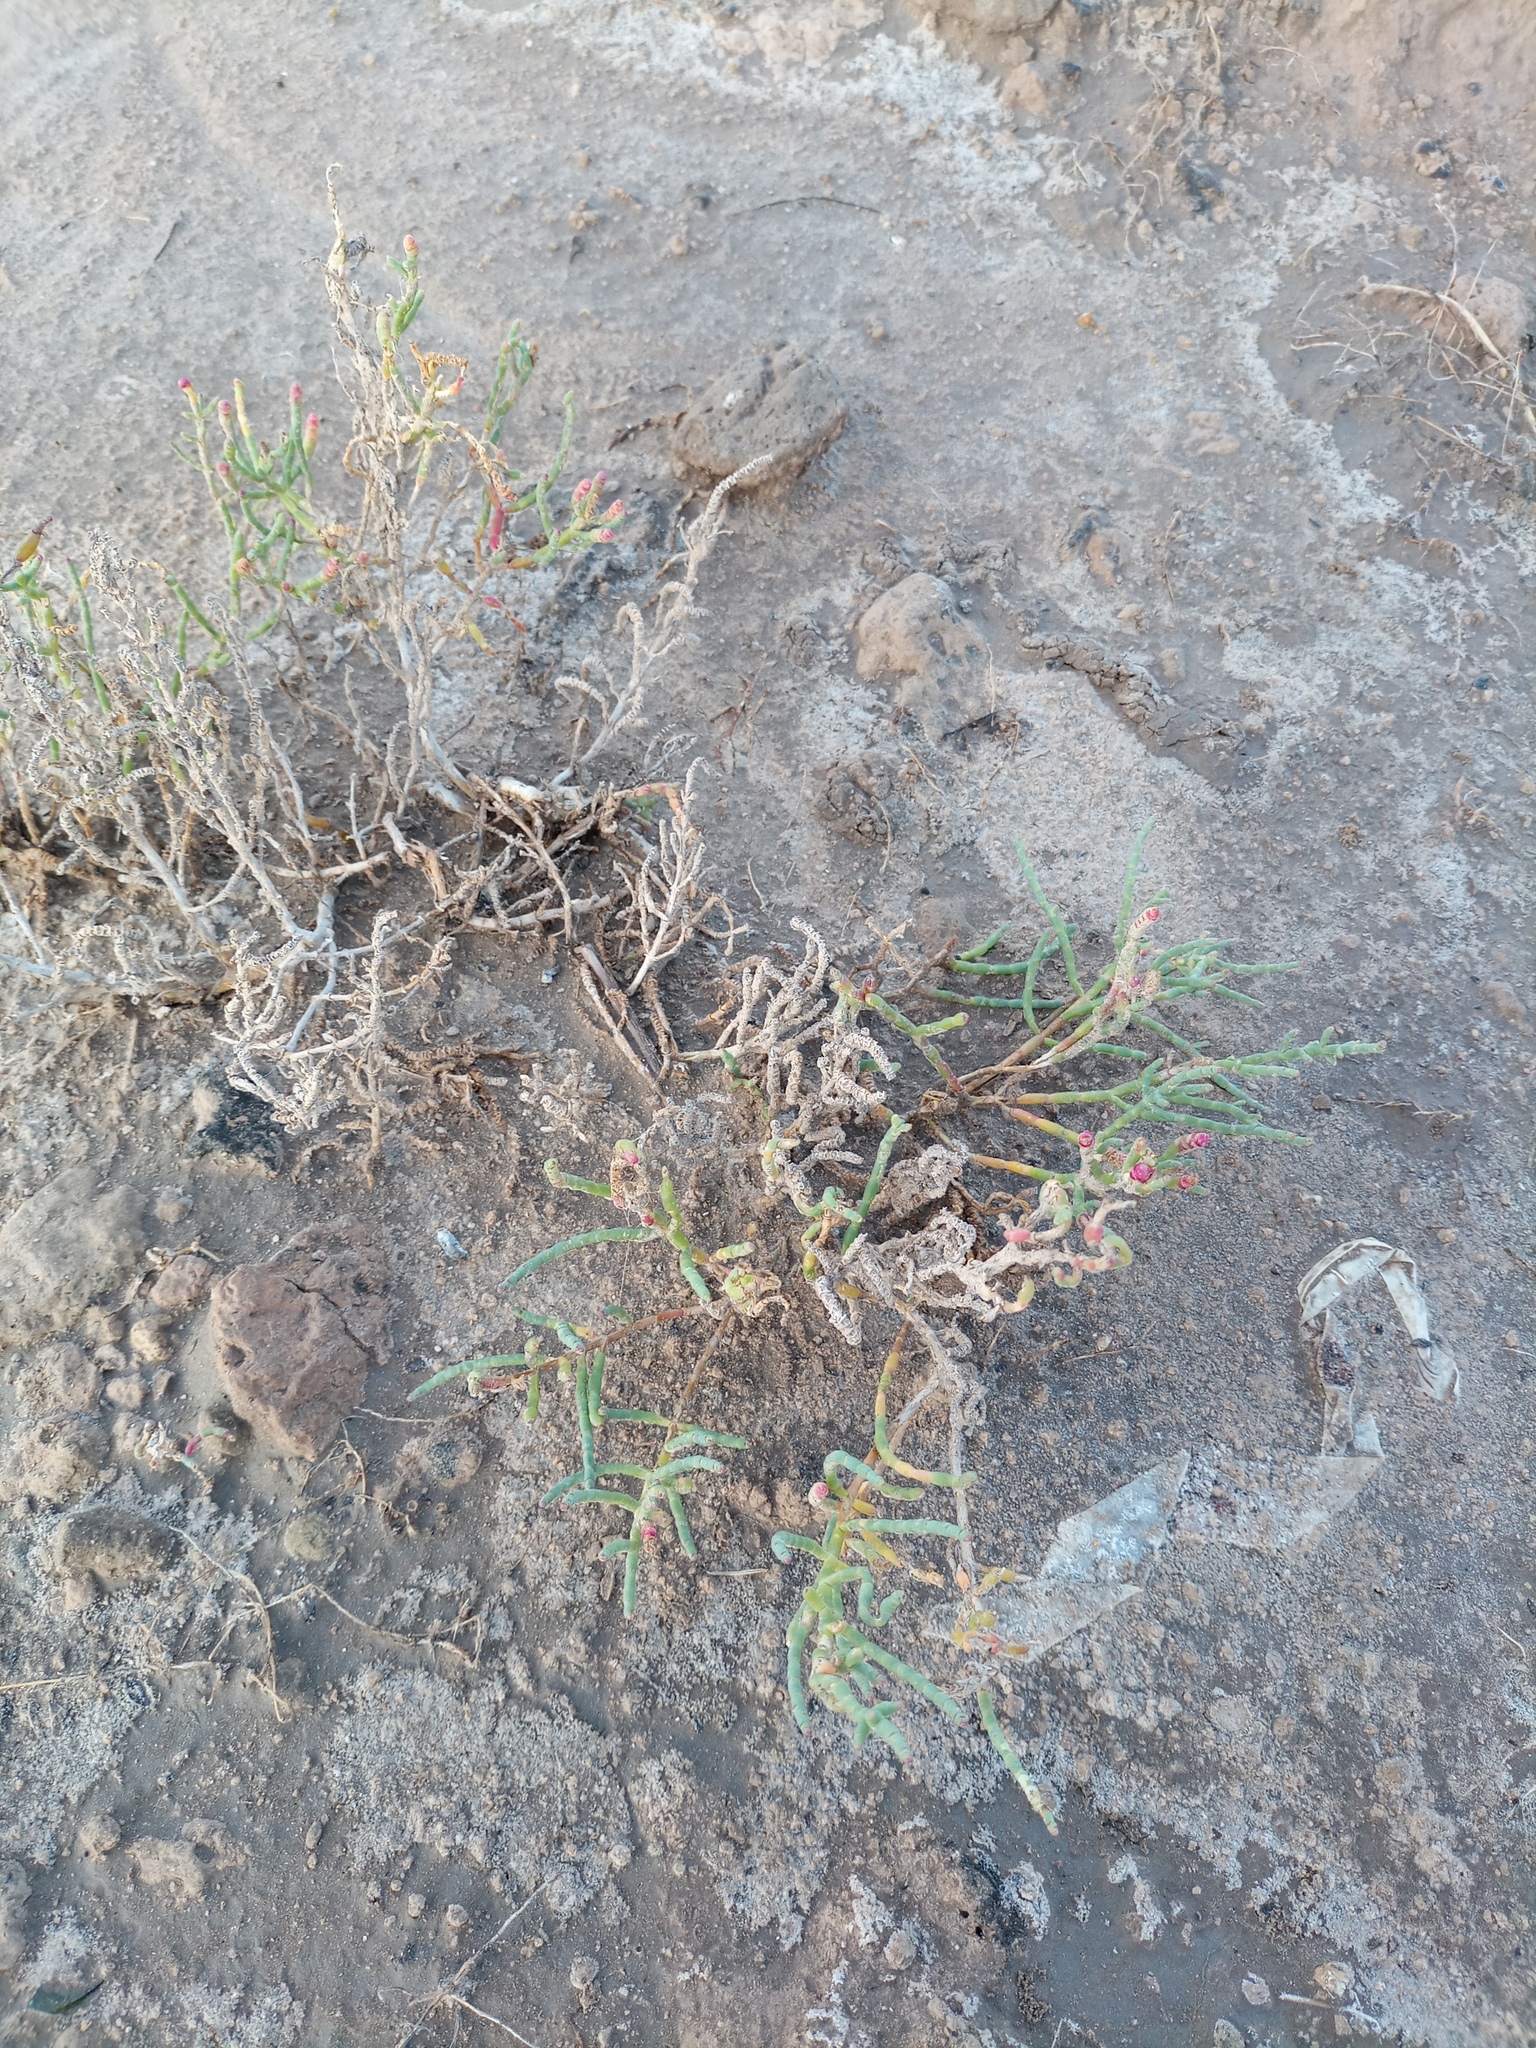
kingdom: Plantae
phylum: Tracheophyta
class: Magnoliopsida
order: Caryophyllales
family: Amaranthaceae
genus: Salicornia
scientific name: Salicornia ambigua
